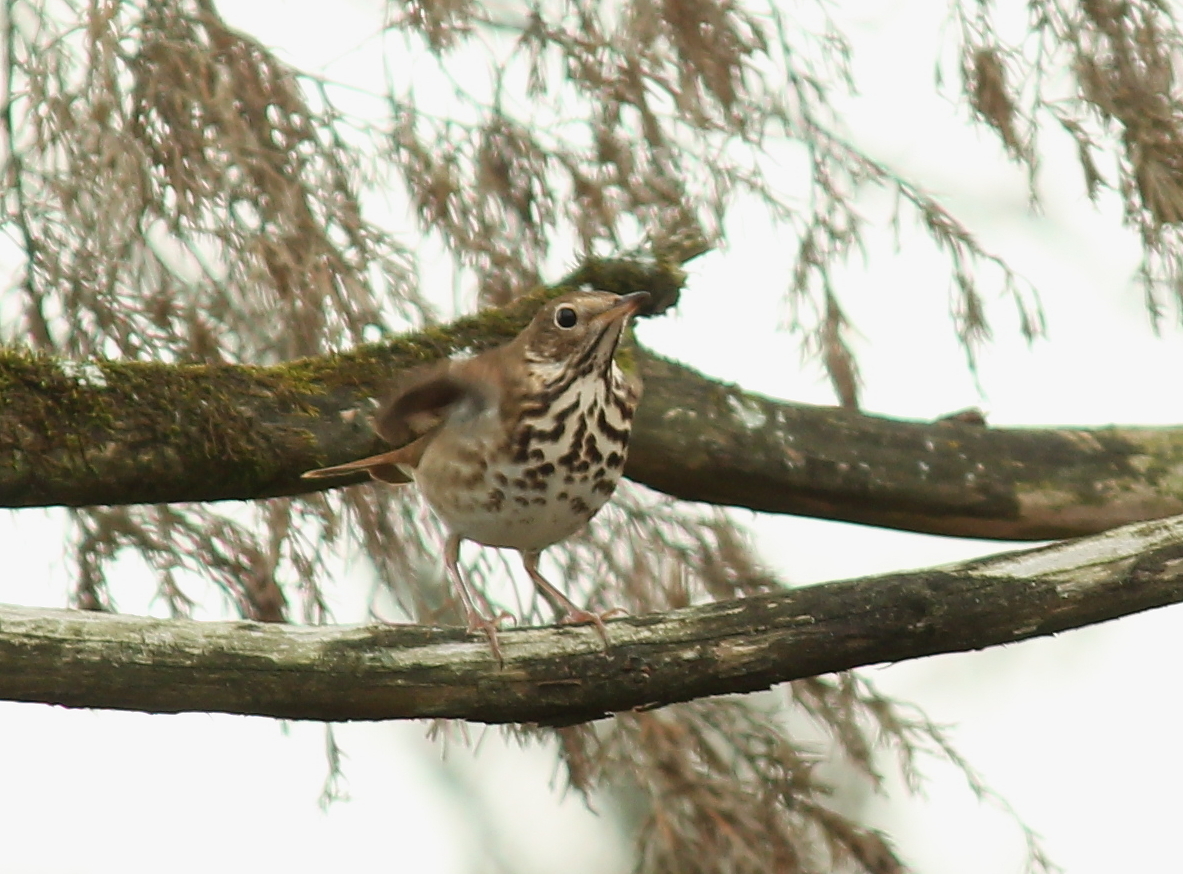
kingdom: Animalia
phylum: Chordata
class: Aves
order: Passeriformes
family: Turdidae
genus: Catharus
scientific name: Catharus guttatus
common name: Hermit thrush
